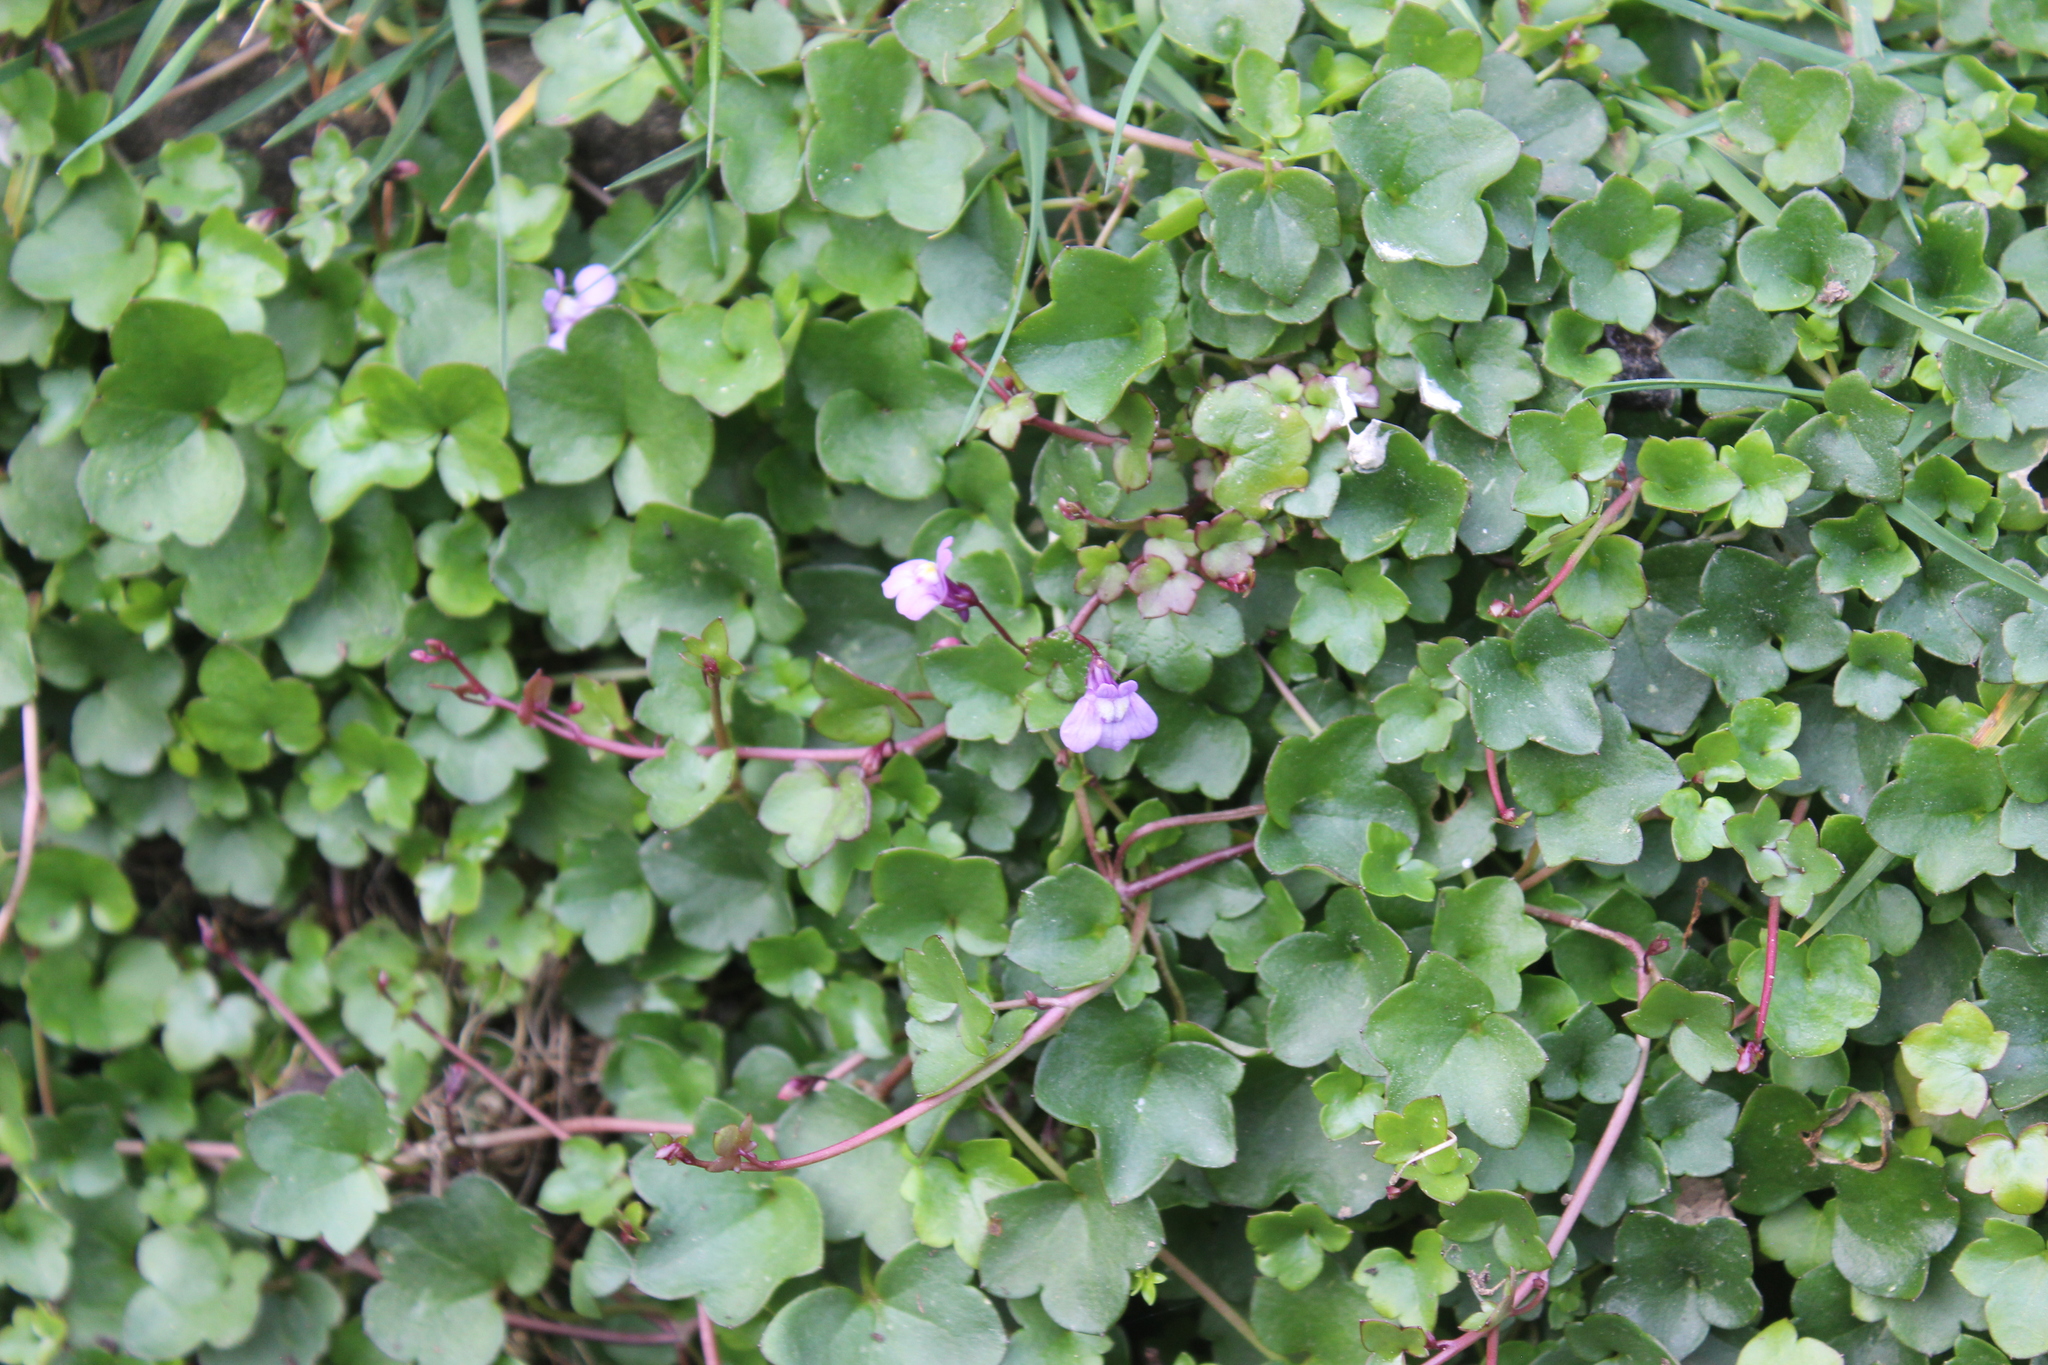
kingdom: Plantae
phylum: Tracheophyta
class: Magnoliopsida
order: Lamiales
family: Plantaginaceae
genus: Cymbalaria
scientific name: Cymbalaria muralis
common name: Ivy-leaved toadflax
